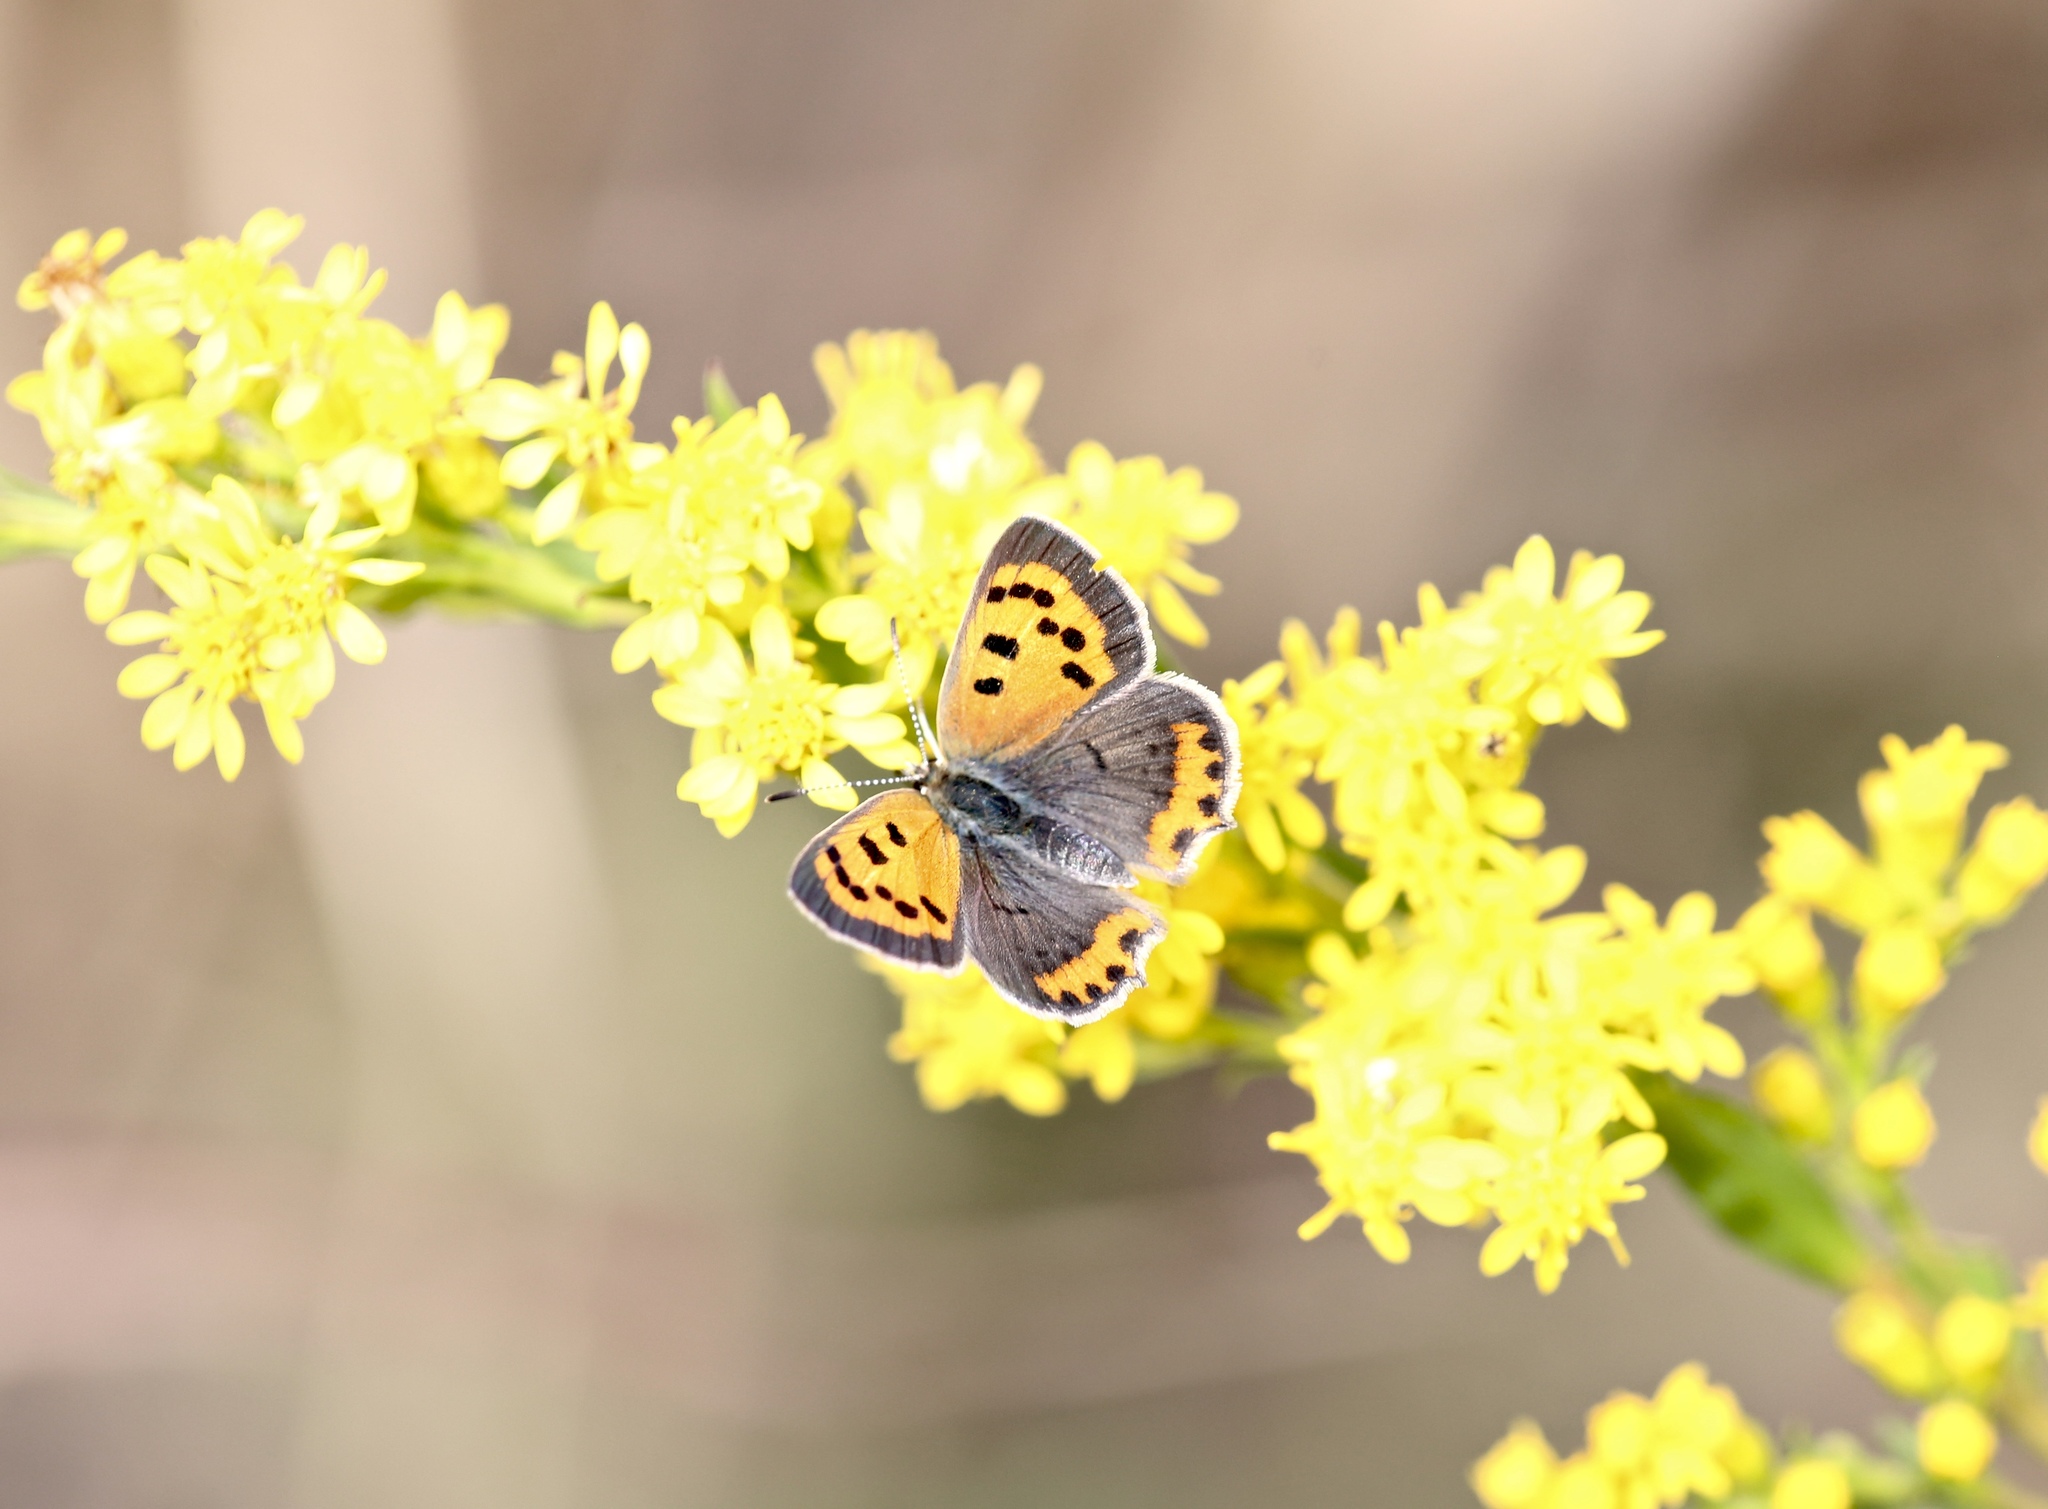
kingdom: Animalia
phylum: Arthropoda
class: Insecta
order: Lepidoptera
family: Lycaenidae
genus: Lycaena
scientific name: Lycaena hypophlaeas
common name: American copper
